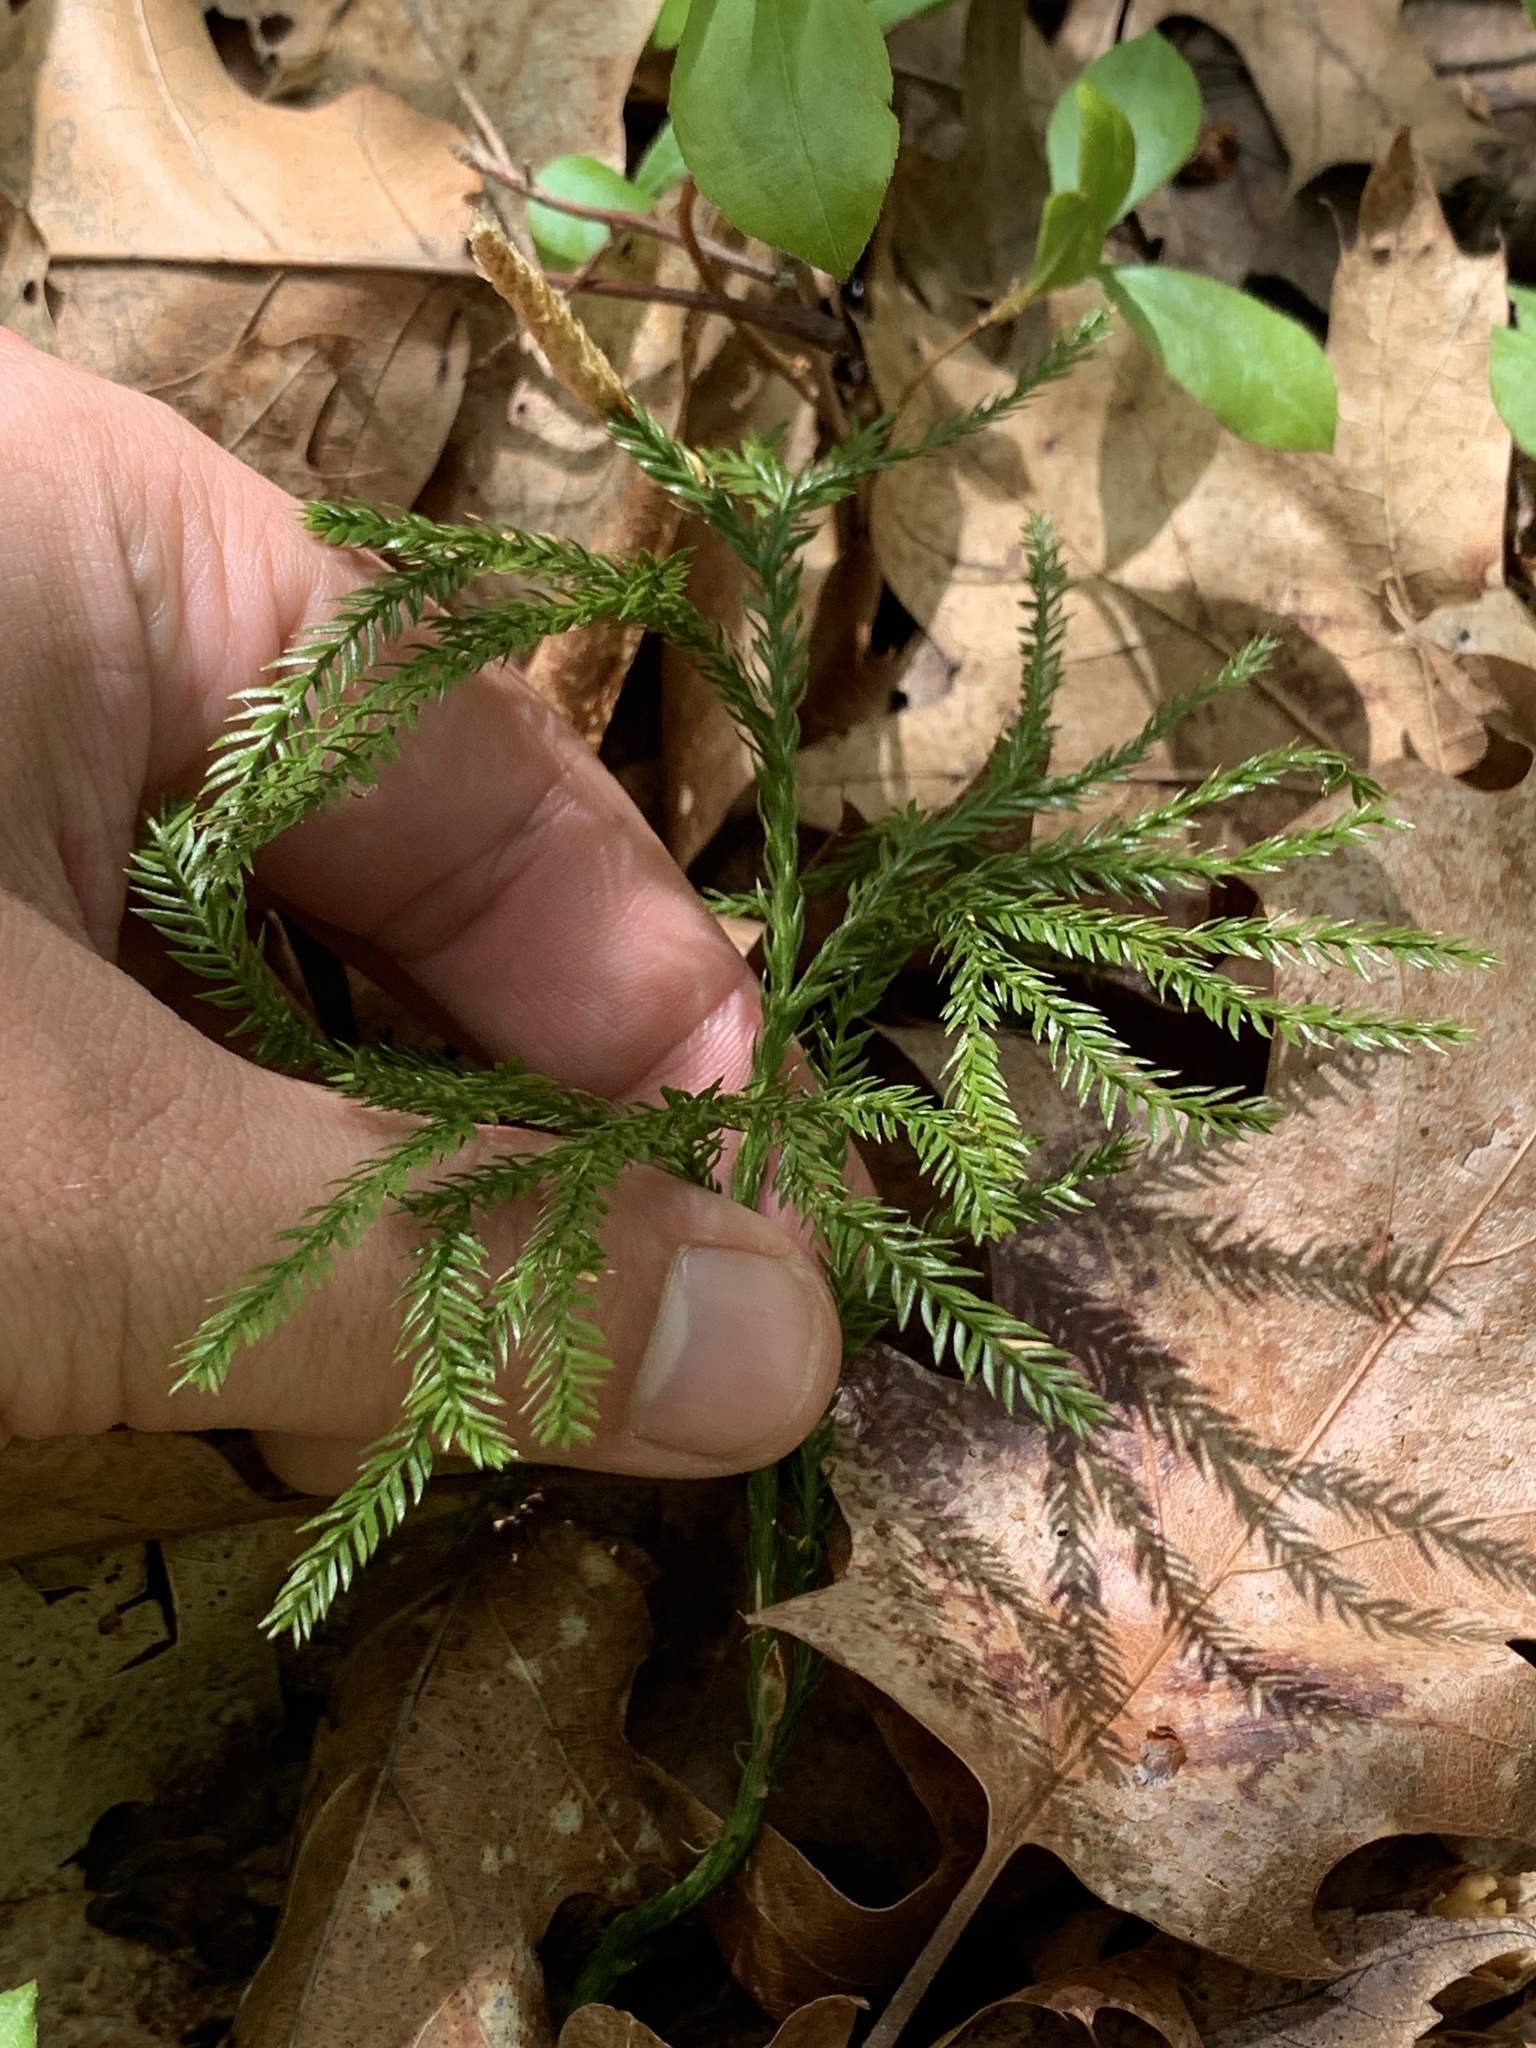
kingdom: Plantae
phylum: Tracheophyta
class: Lycopodiopsida
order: Lycopodiales
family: Lycopodiaceae
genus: Dendrolycopodium
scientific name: Dendrolycopodium obscurum
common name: Common ground-pine
